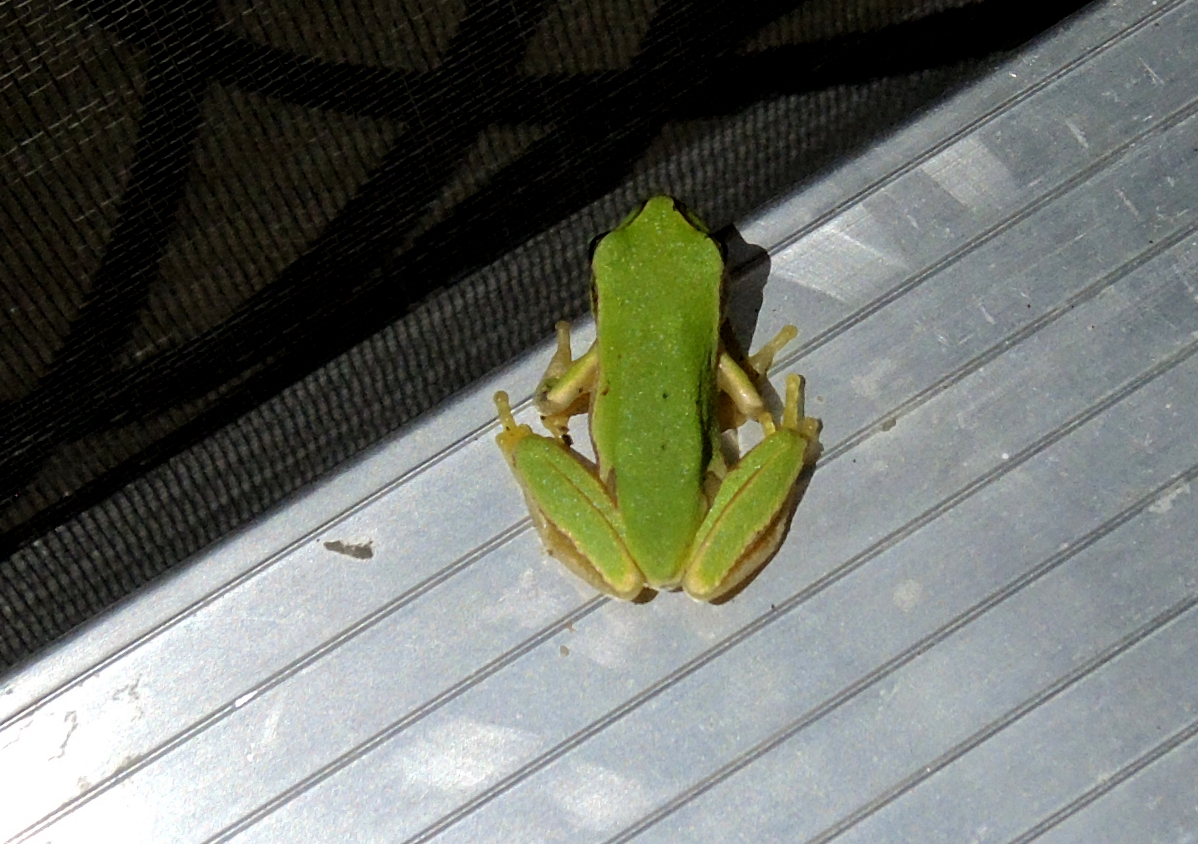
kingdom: Animalia
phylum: Chordata
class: Amphibia
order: Anura
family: Hylidae
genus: Hyla
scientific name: Hyla orientalis
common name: Caucasian treefrog
